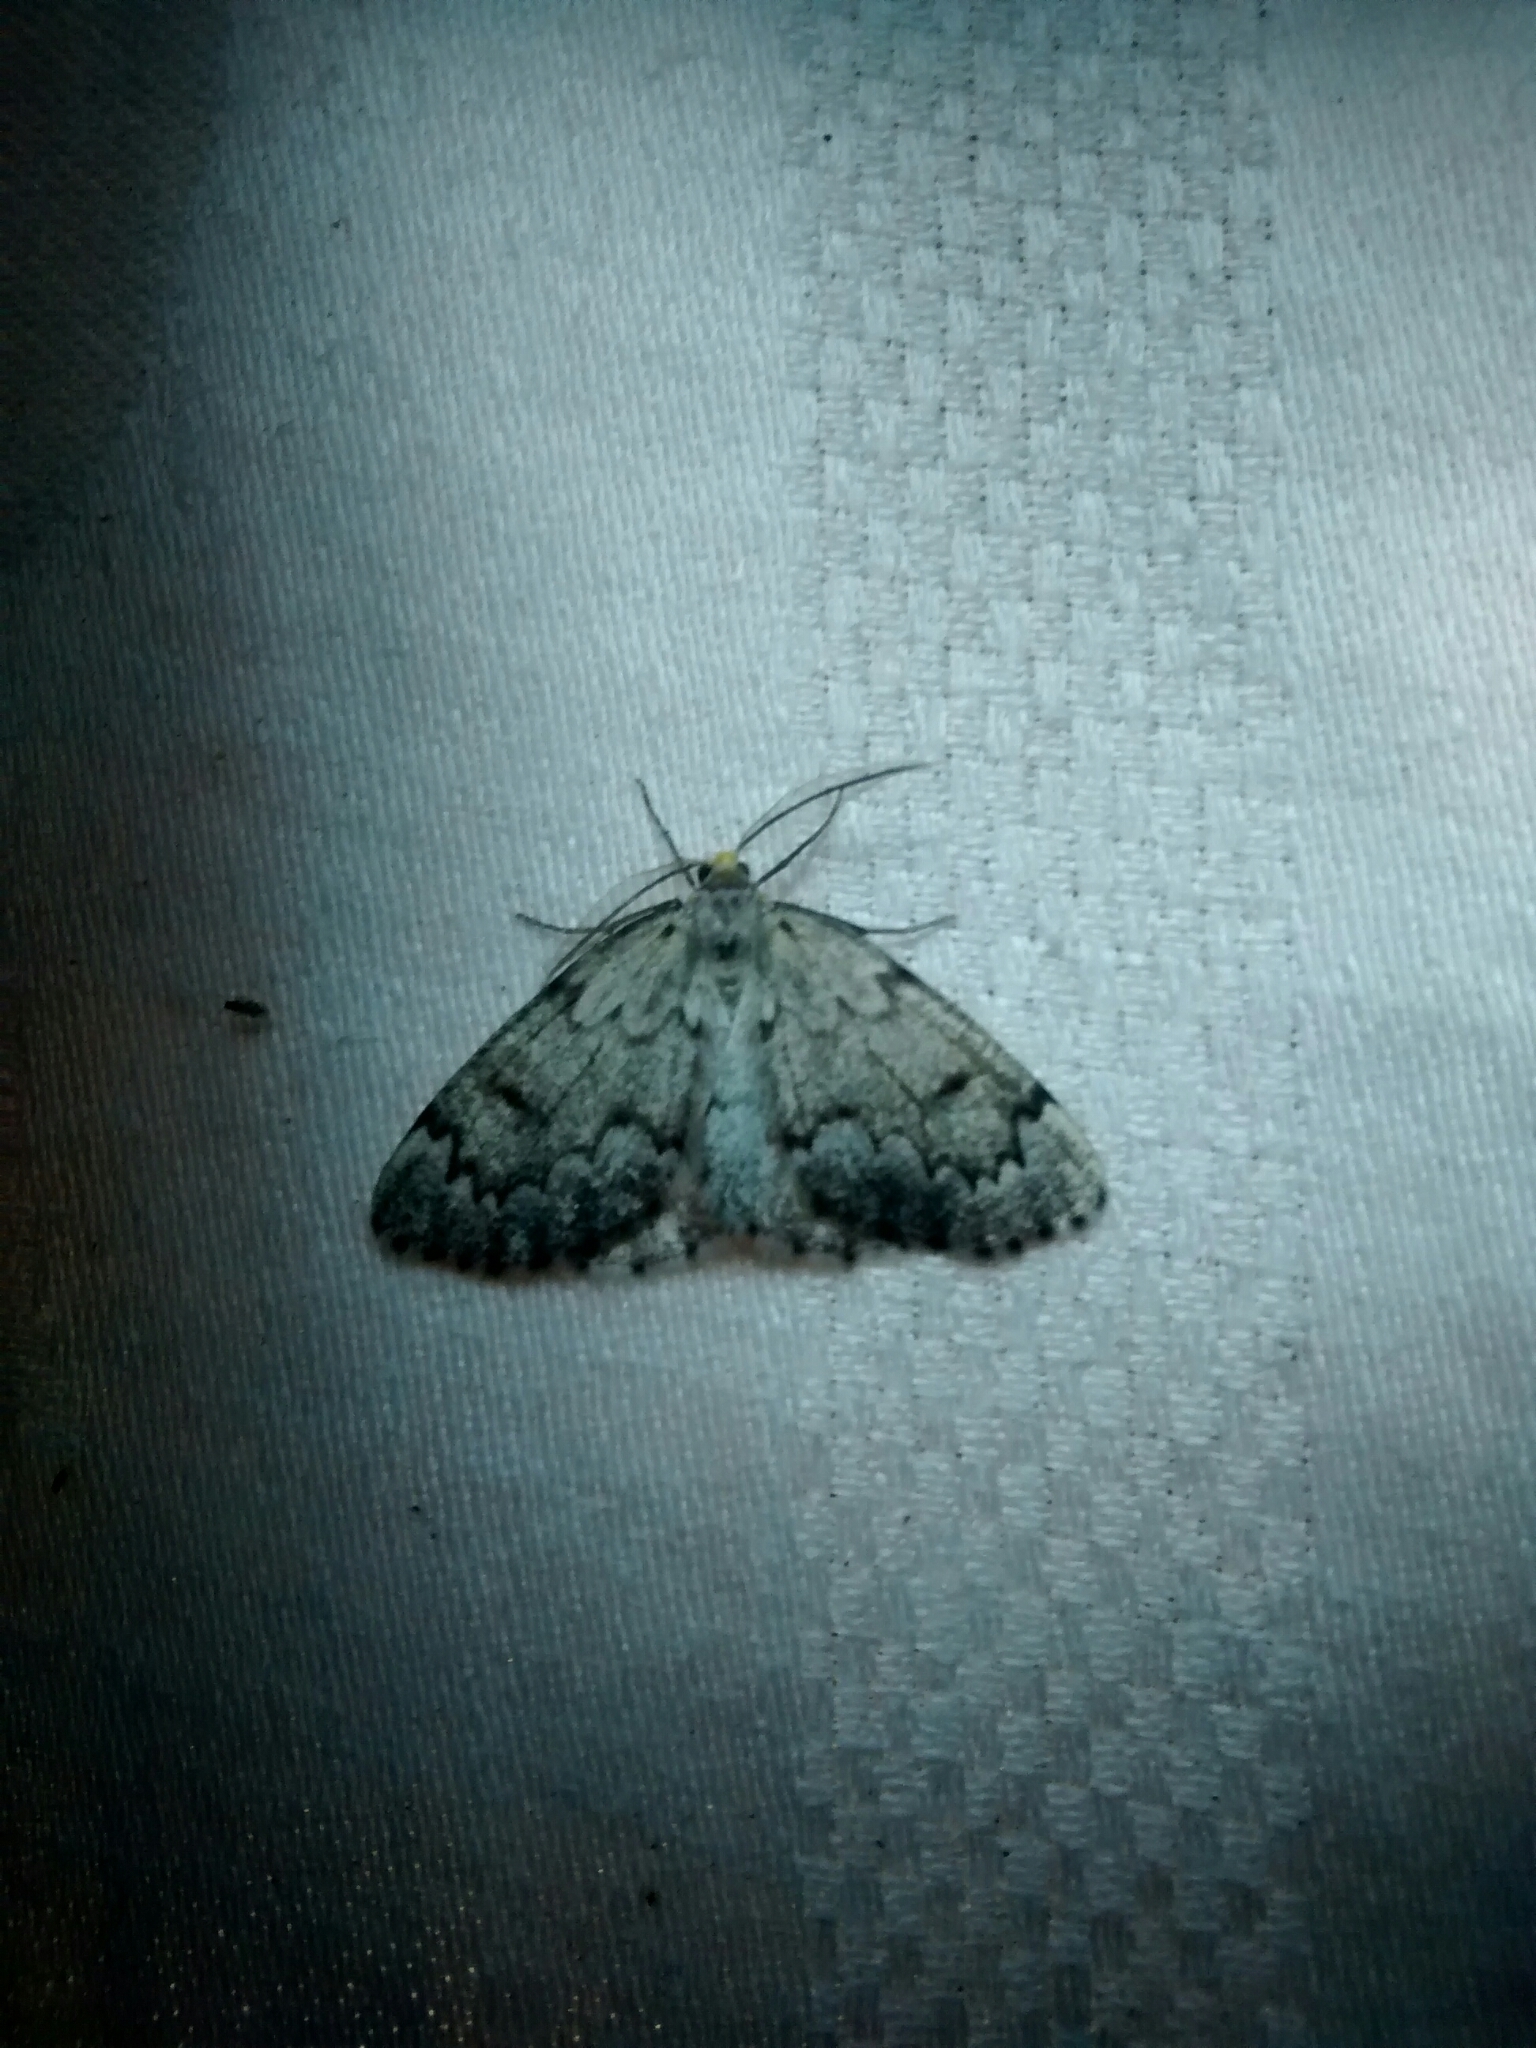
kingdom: Animalia
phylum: Arthropoda
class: Insecta
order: Lepidoptera
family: Geometridae
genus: Nepytia
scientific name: Nepytia canosaria
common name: False hemlock looper
